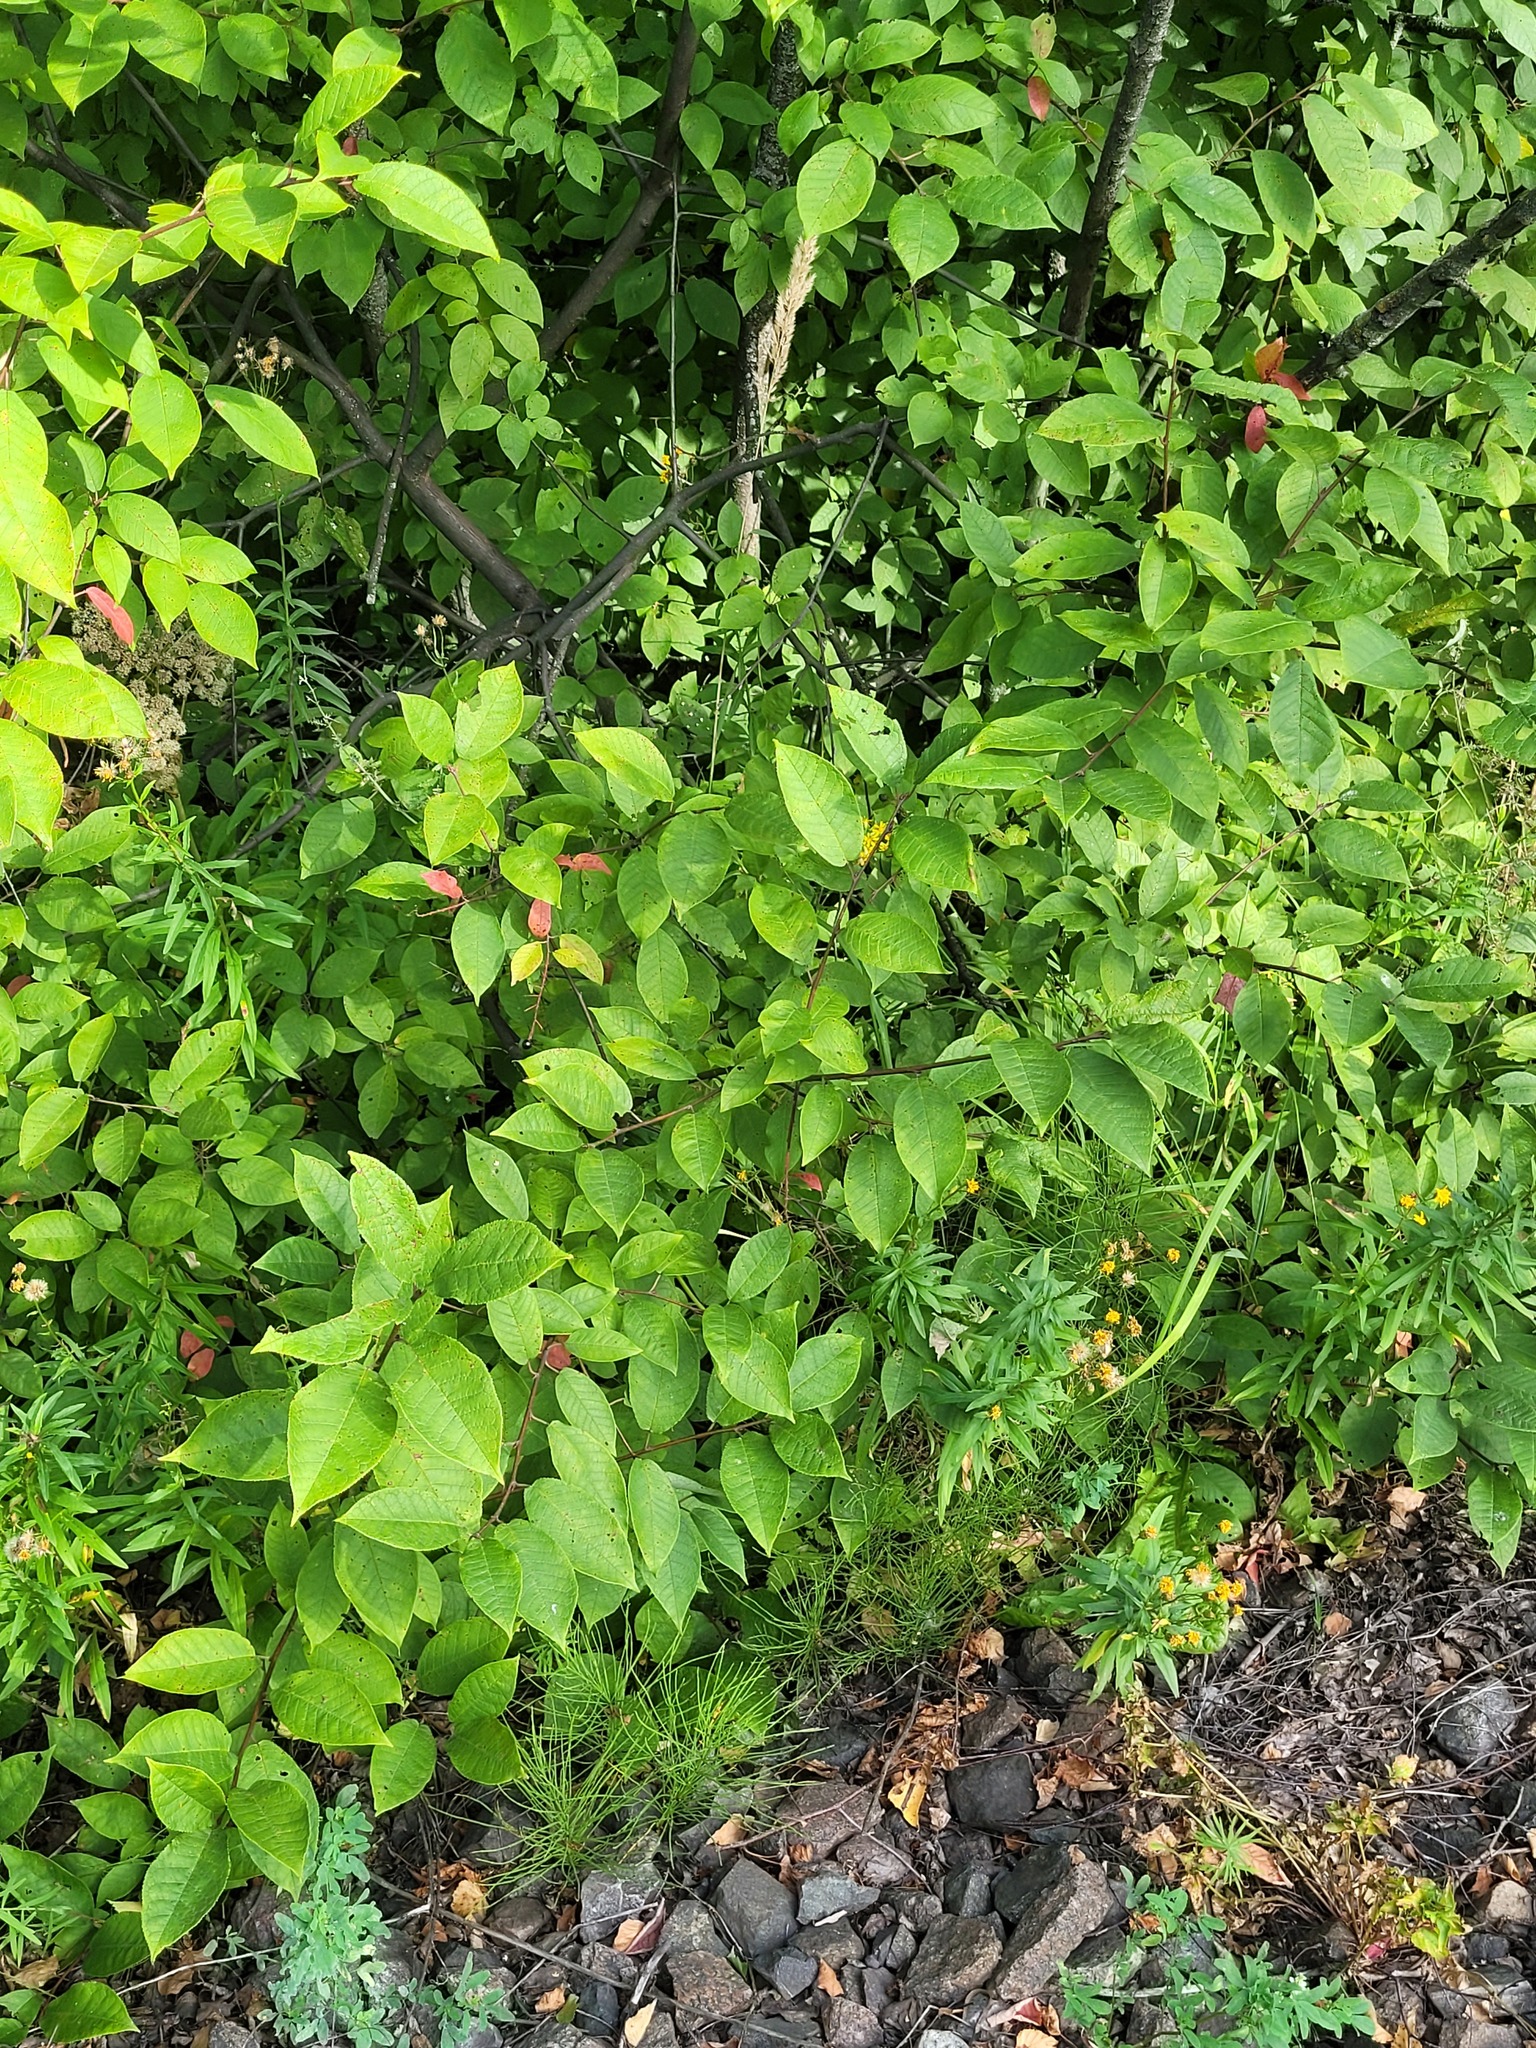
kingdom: Plantae
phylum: Tracheophyta
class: Magnoliopsida
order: Rosales
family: Rosaceae
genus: Prunus
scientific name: Prunus padus
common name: Bird cherry
